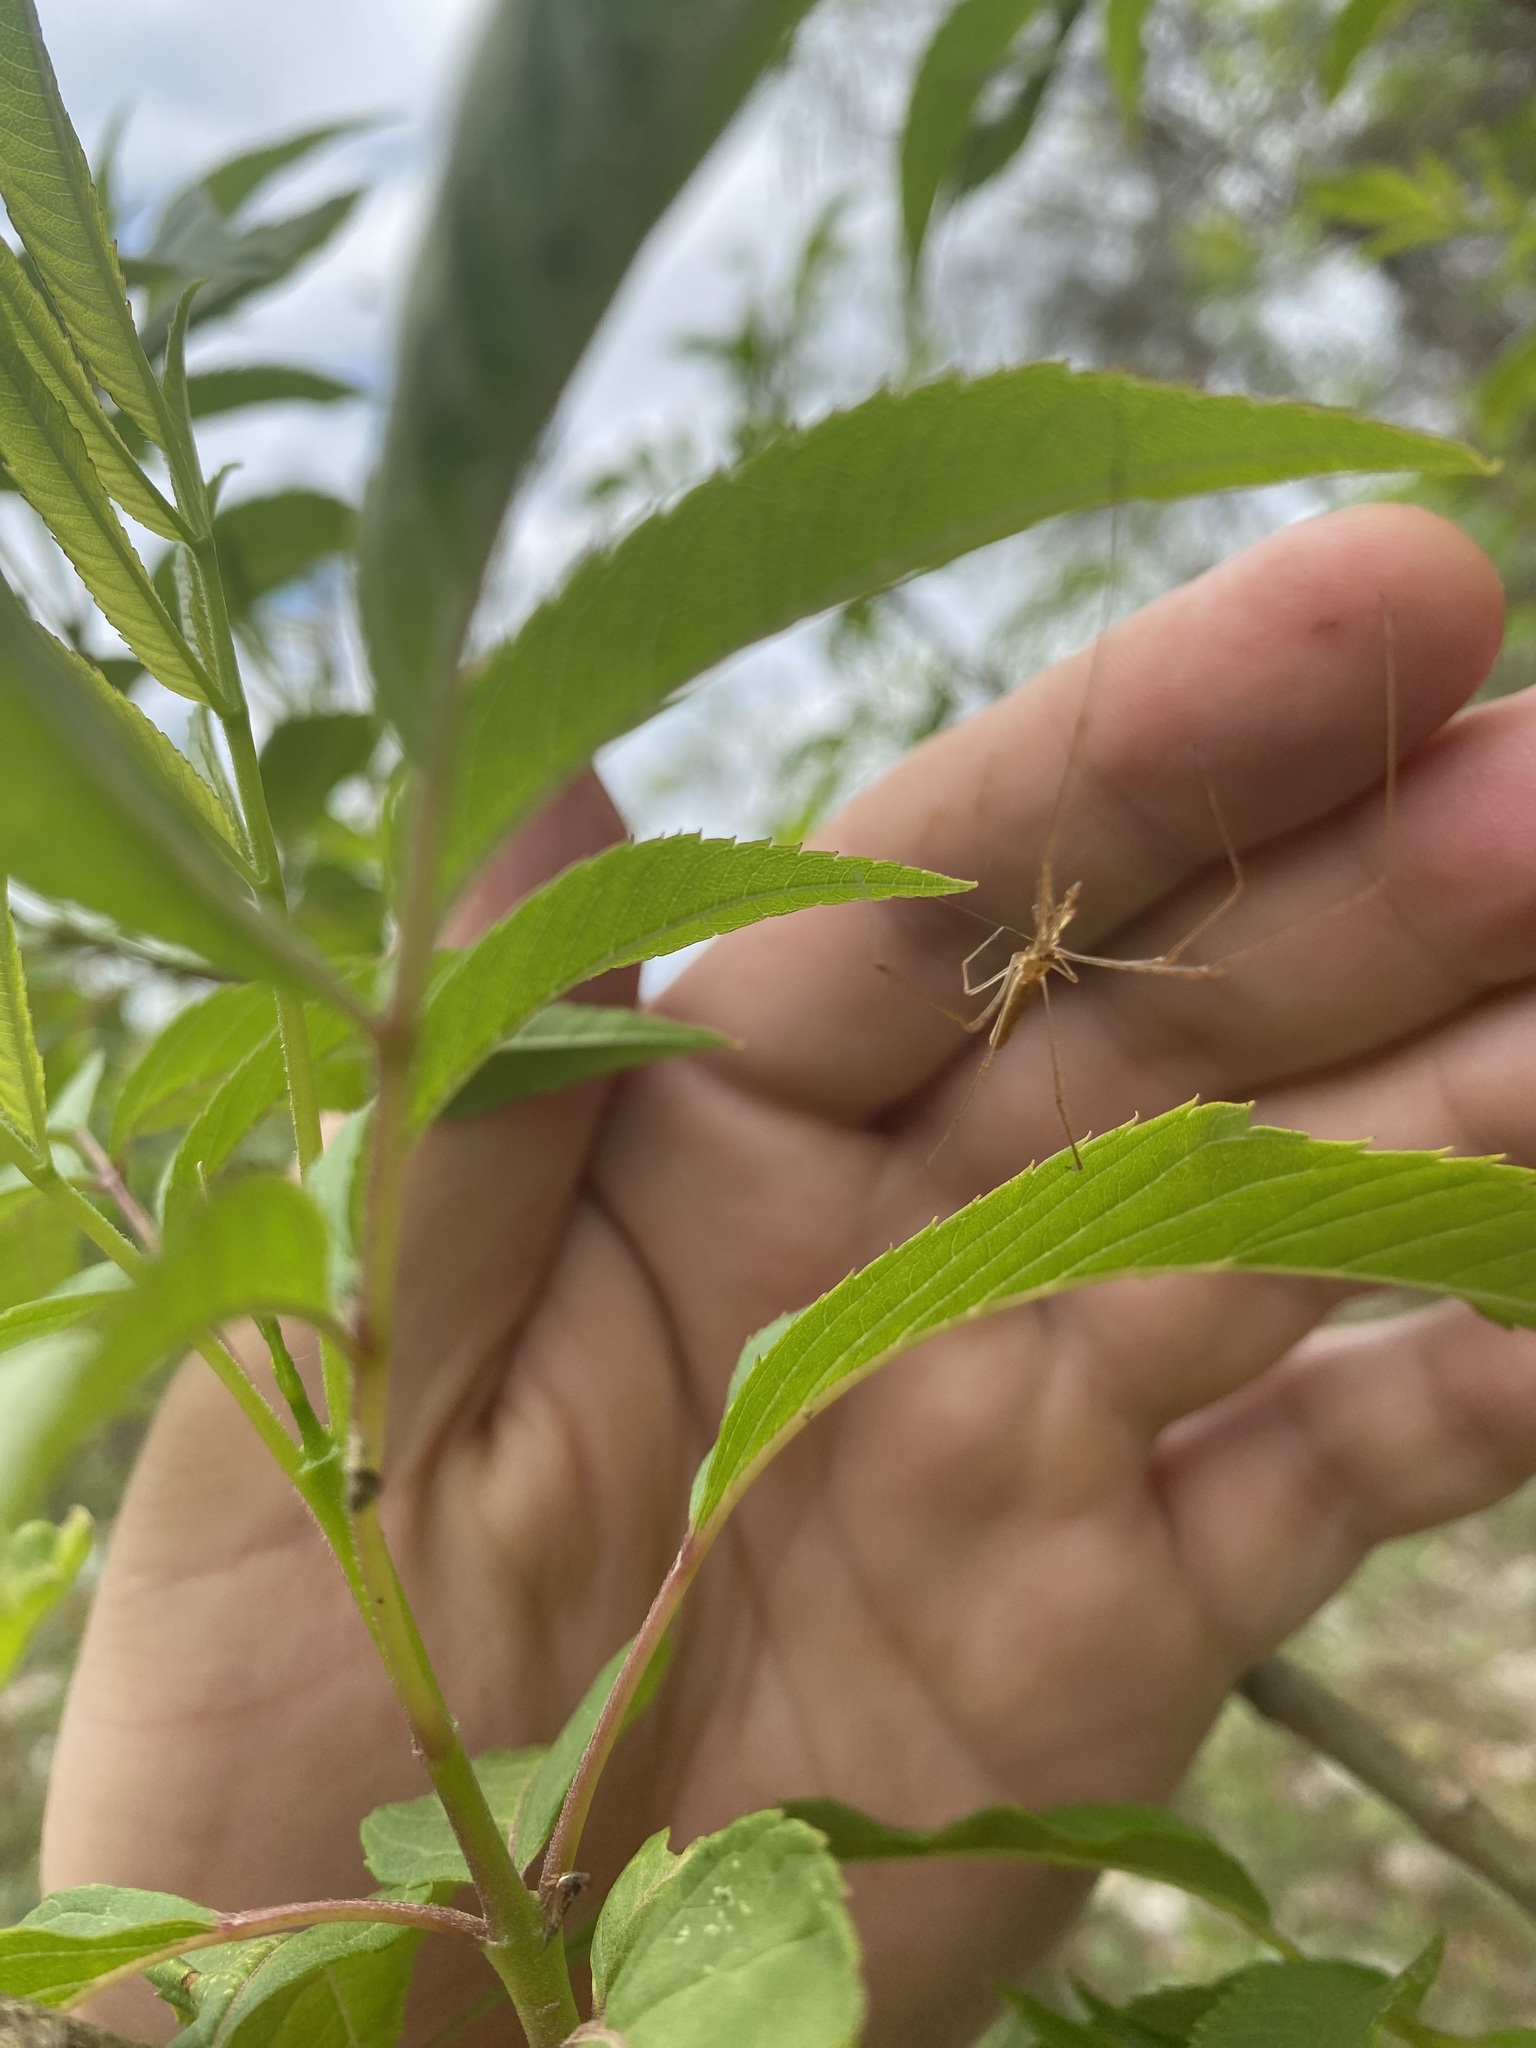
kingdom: Animalia
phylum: Arthropoda
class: Arachnida
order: Araneae
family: Tetragnathidae
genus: Tetragnatha
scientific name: Tetragnatha
